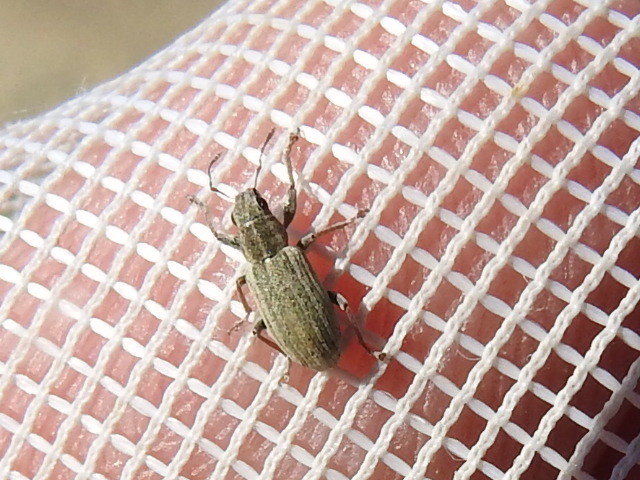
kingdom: Animalia
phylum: Arthropoda
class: Insecta
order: Coleoptera
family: Curculionidae
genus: Sitona
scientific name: Sitona lineatus
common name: Weevil
